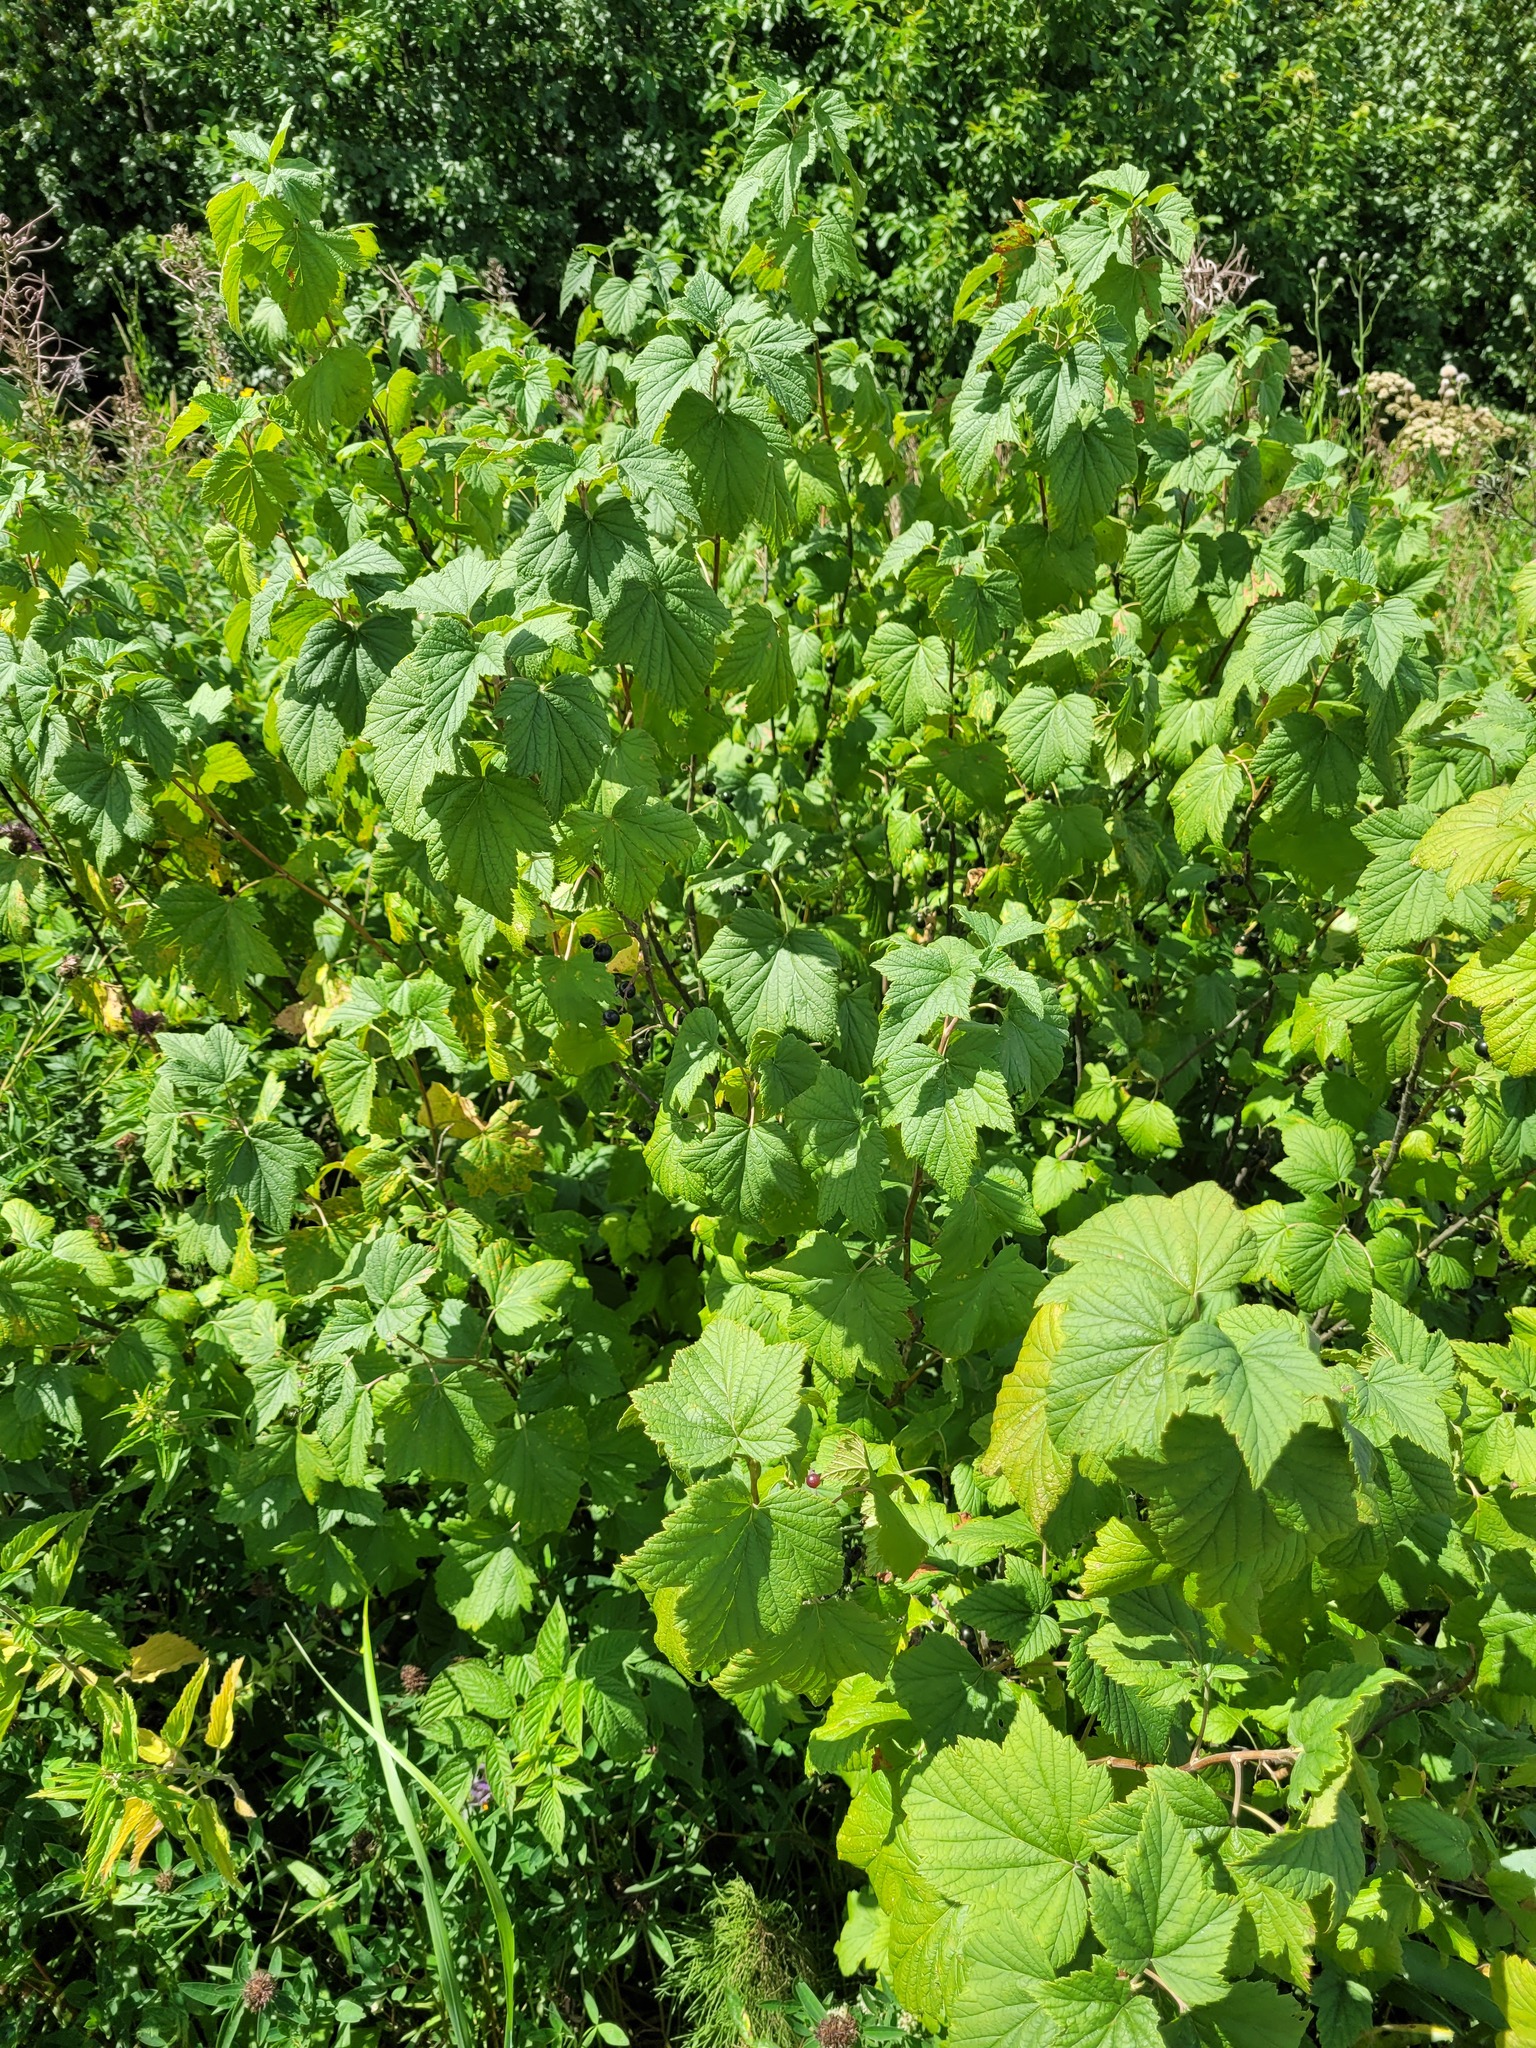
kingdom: Plantae
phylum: Tracheophyta
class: Magnoliopsida
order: Saxifragales
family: Grossulariaceae
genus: Ribes
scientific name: Ribes nigrum
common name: Black currant
